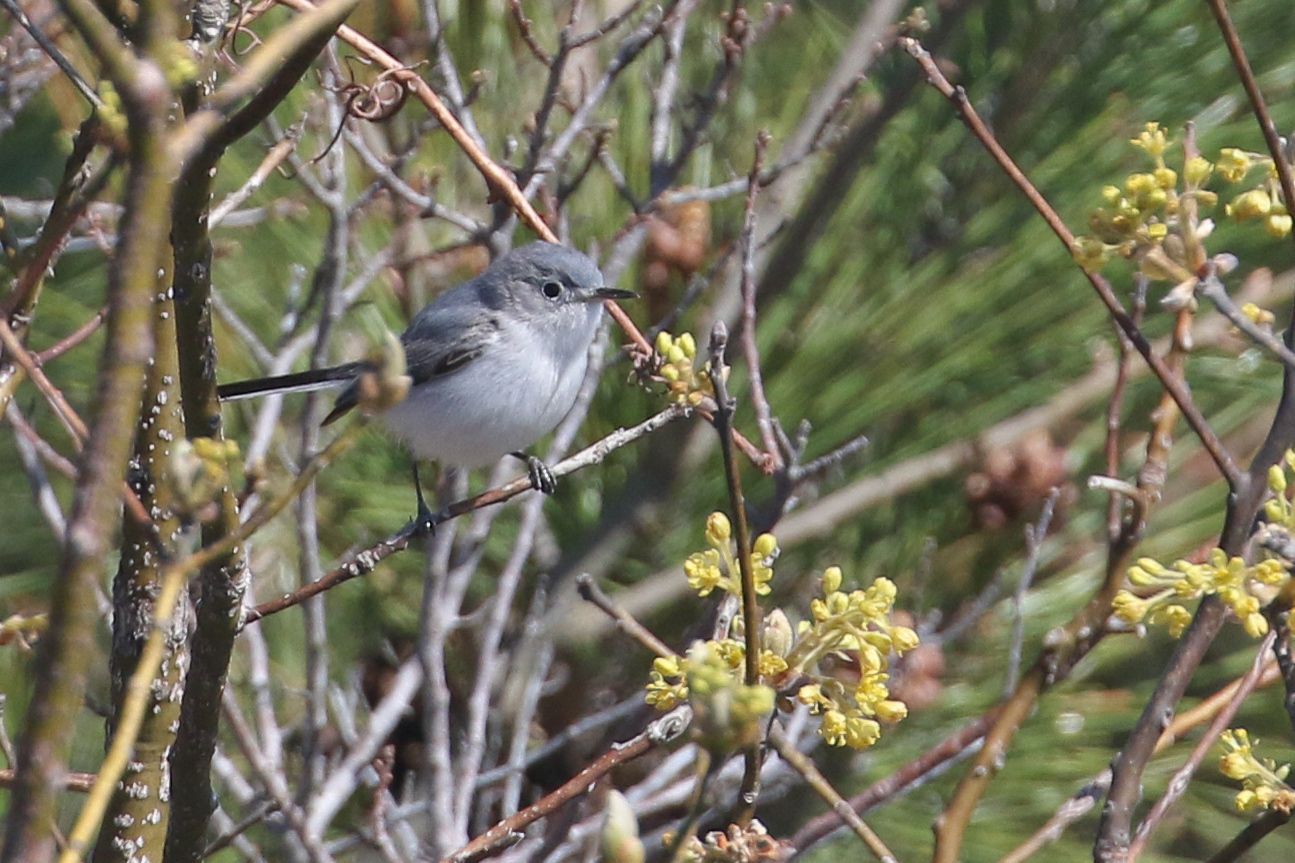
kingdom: Animalia
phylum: Chordata
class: Aves
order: Passeriformes
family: Polioptilidae
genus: Polioptila
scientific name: Polioptila caerulea
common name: Blue-gray gnatcatcher
